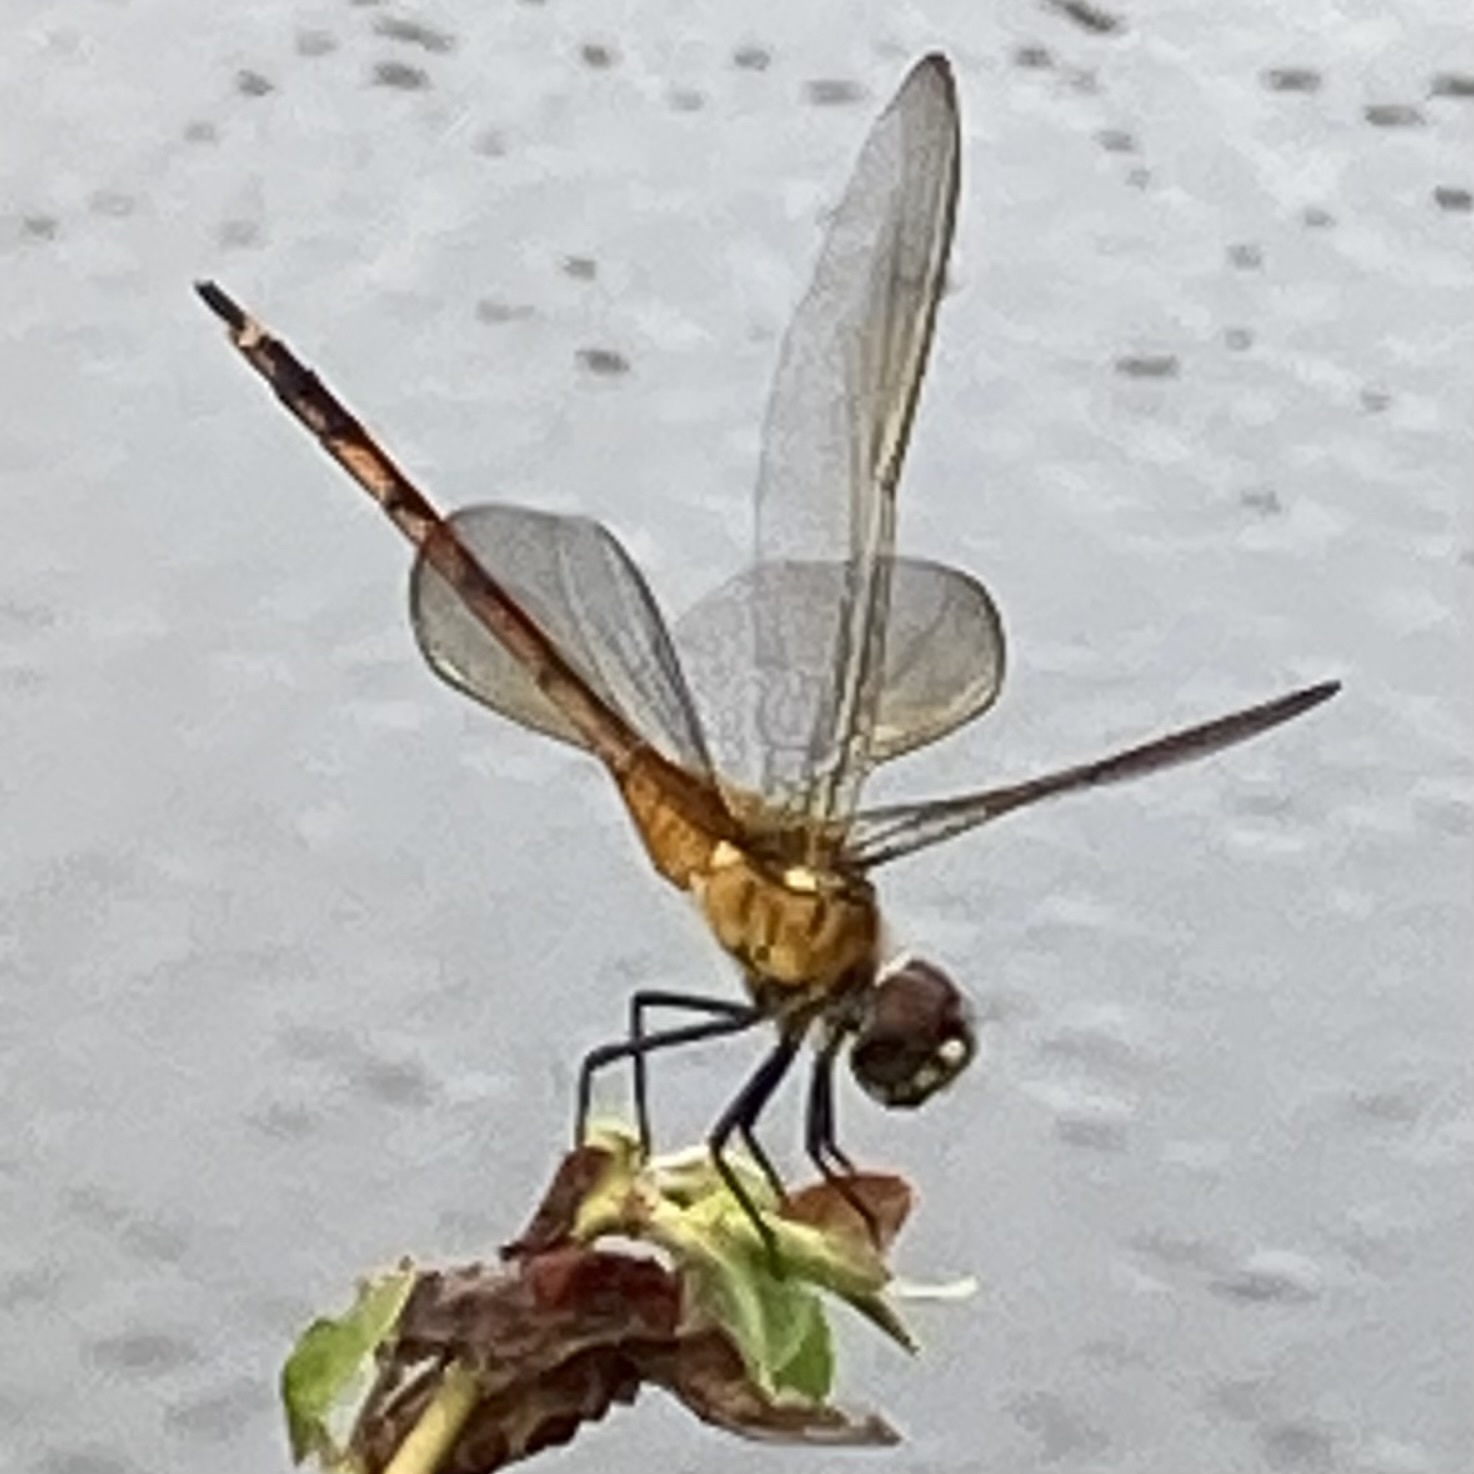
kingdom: Animalia
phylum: Arthropoda
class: Insecta
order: Odonata
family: Libellulidae
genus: Brachymesia
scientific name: Brachymesia gravida
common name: Four-spotted pennant
